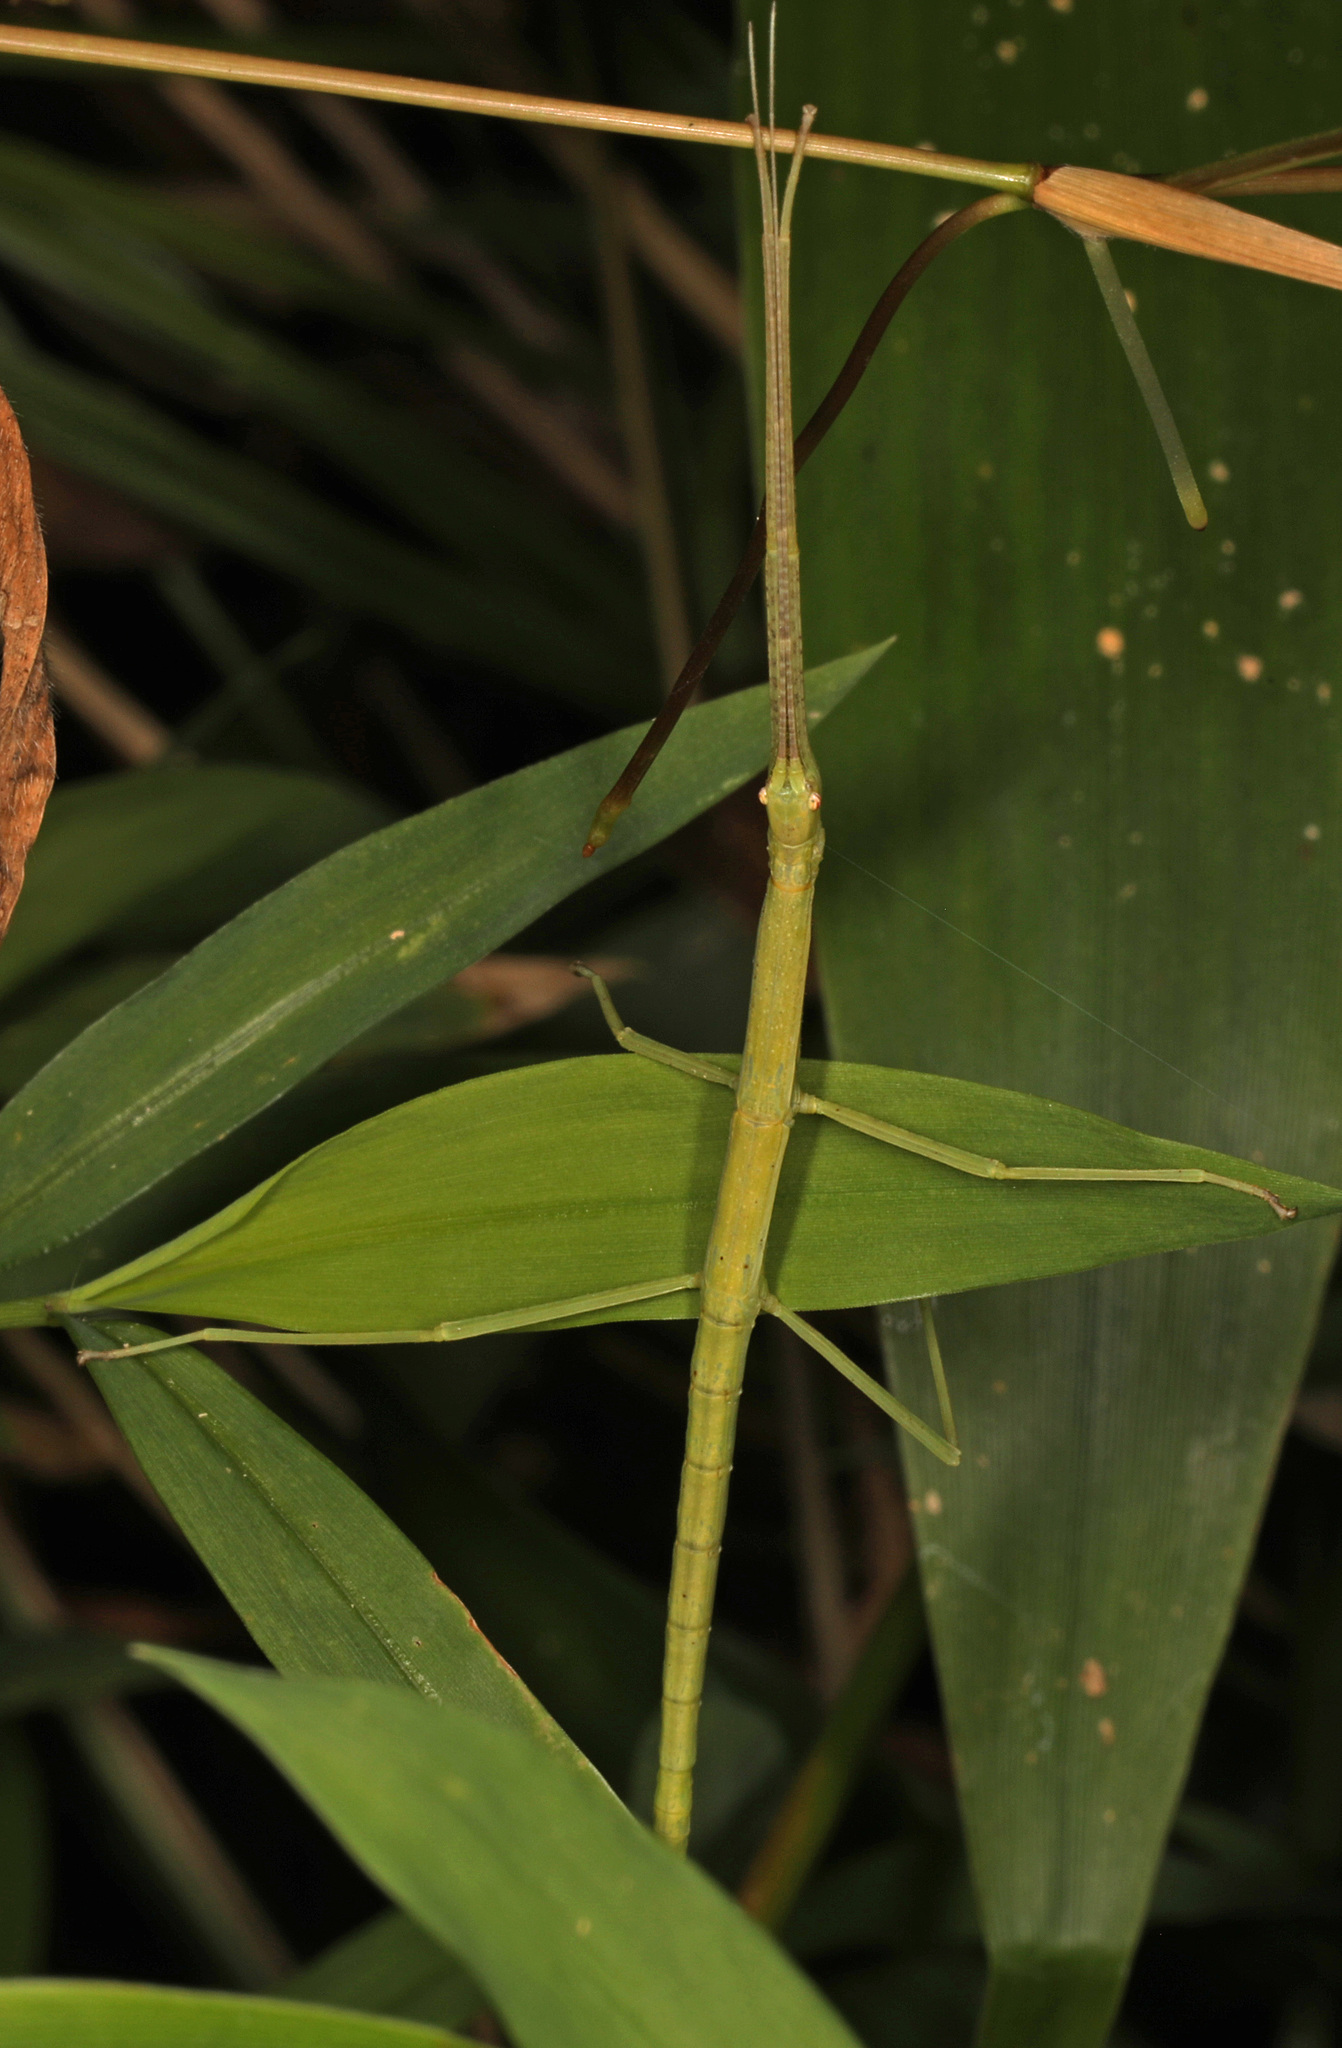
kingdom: Animalia
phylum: Arthropoda
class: Insecta
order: Phasmida
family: Diapheromeridae
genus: Diapheromera
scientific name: Diapheromera femorata
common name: Common american walkingstick
